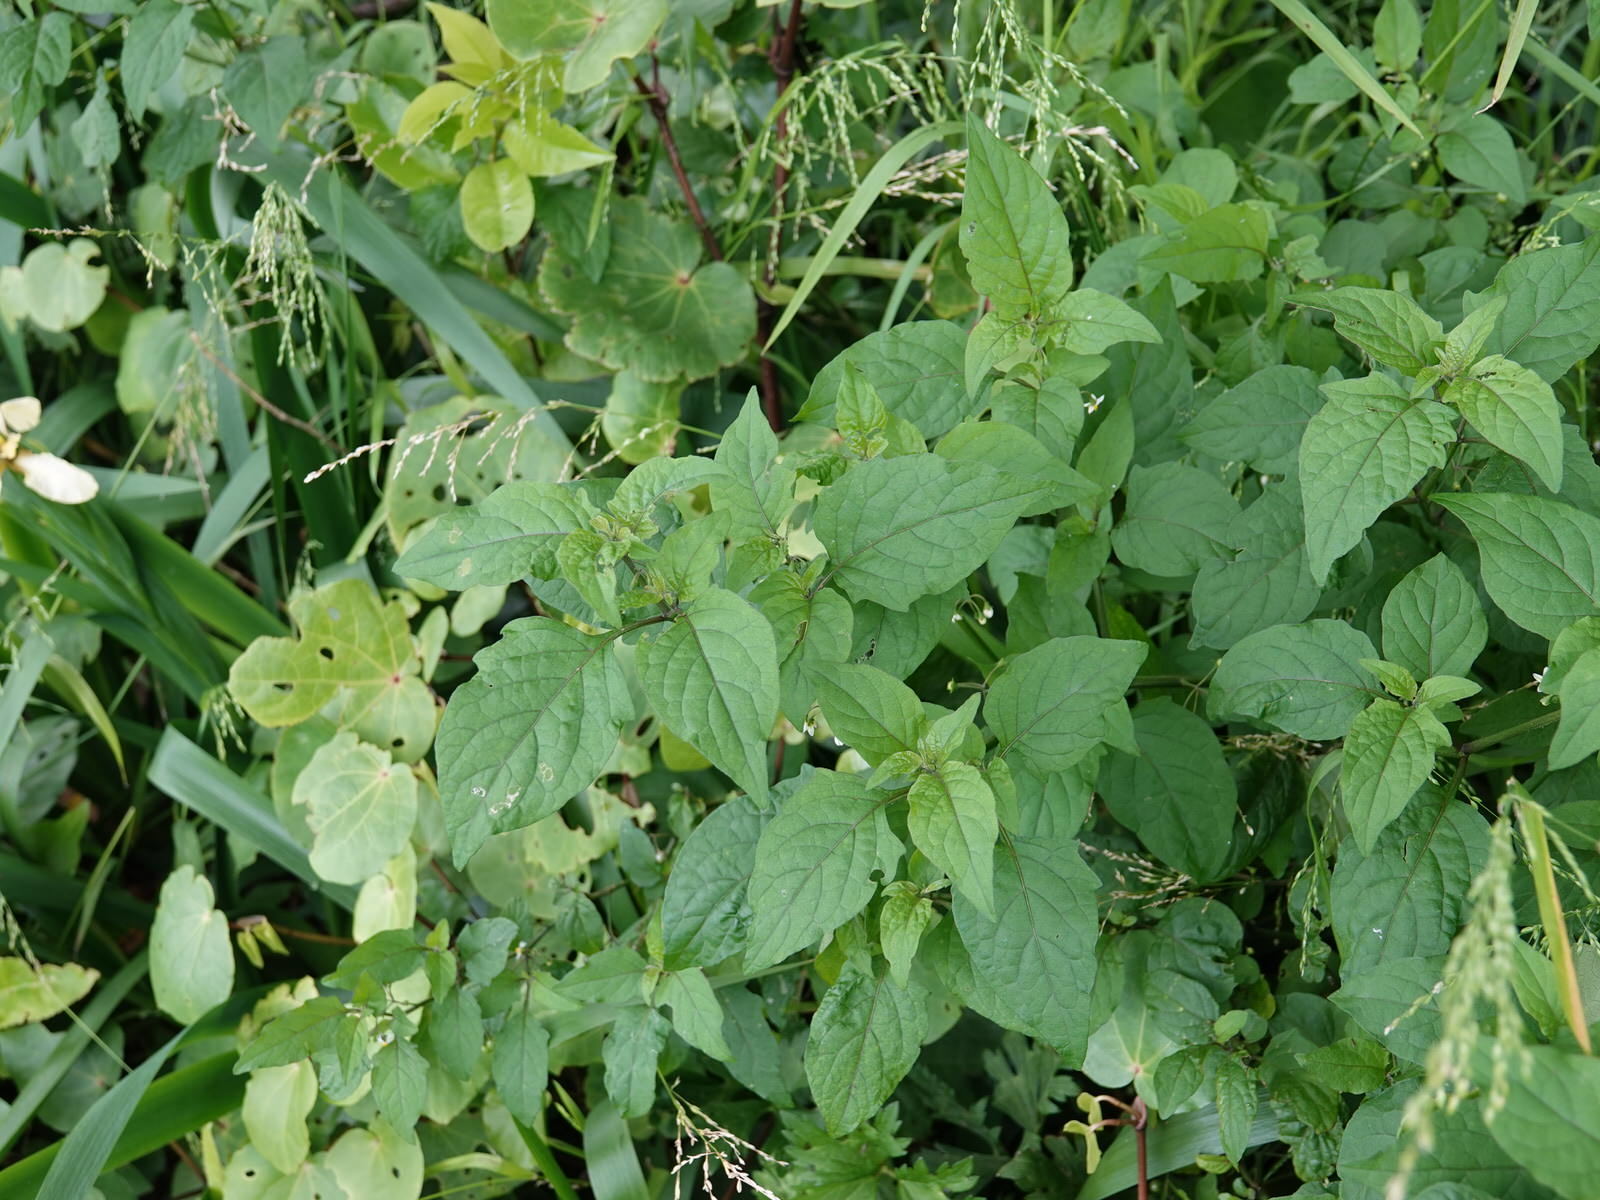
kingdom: Animalia
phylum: Arthropoda
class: Insecta
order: Coleoptera
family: Coccinellidae
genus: Henosepilachna
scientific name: Henosepilachna vigintioctopunctata
